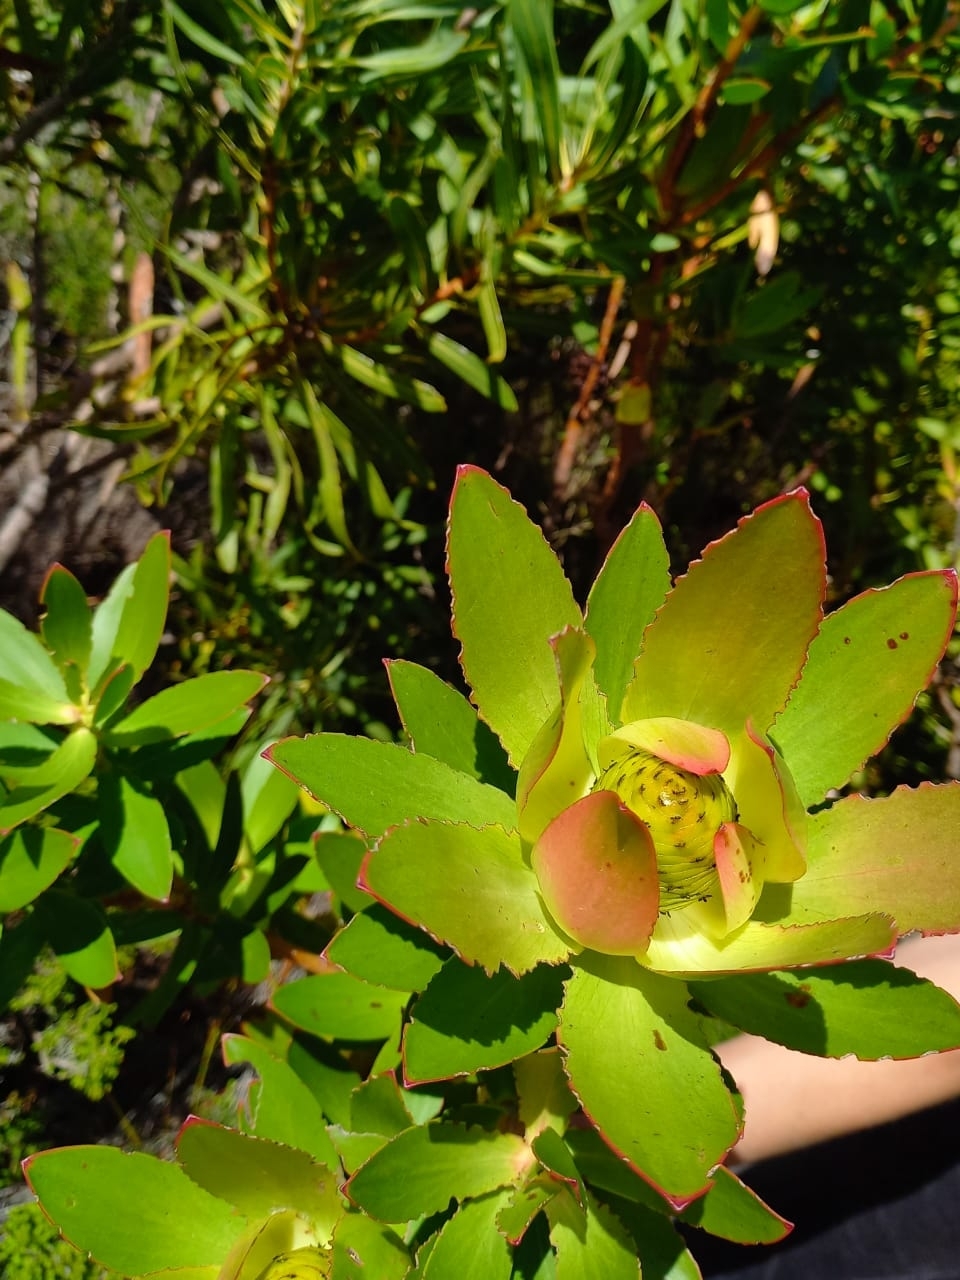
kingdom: Plantae
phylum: Tracheophyta
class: Magnoliopsida
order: Proteales
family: Proteaceae
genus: Leucadendron
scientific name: Leucadendron gandogeri
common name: Broad-leaf conebush
